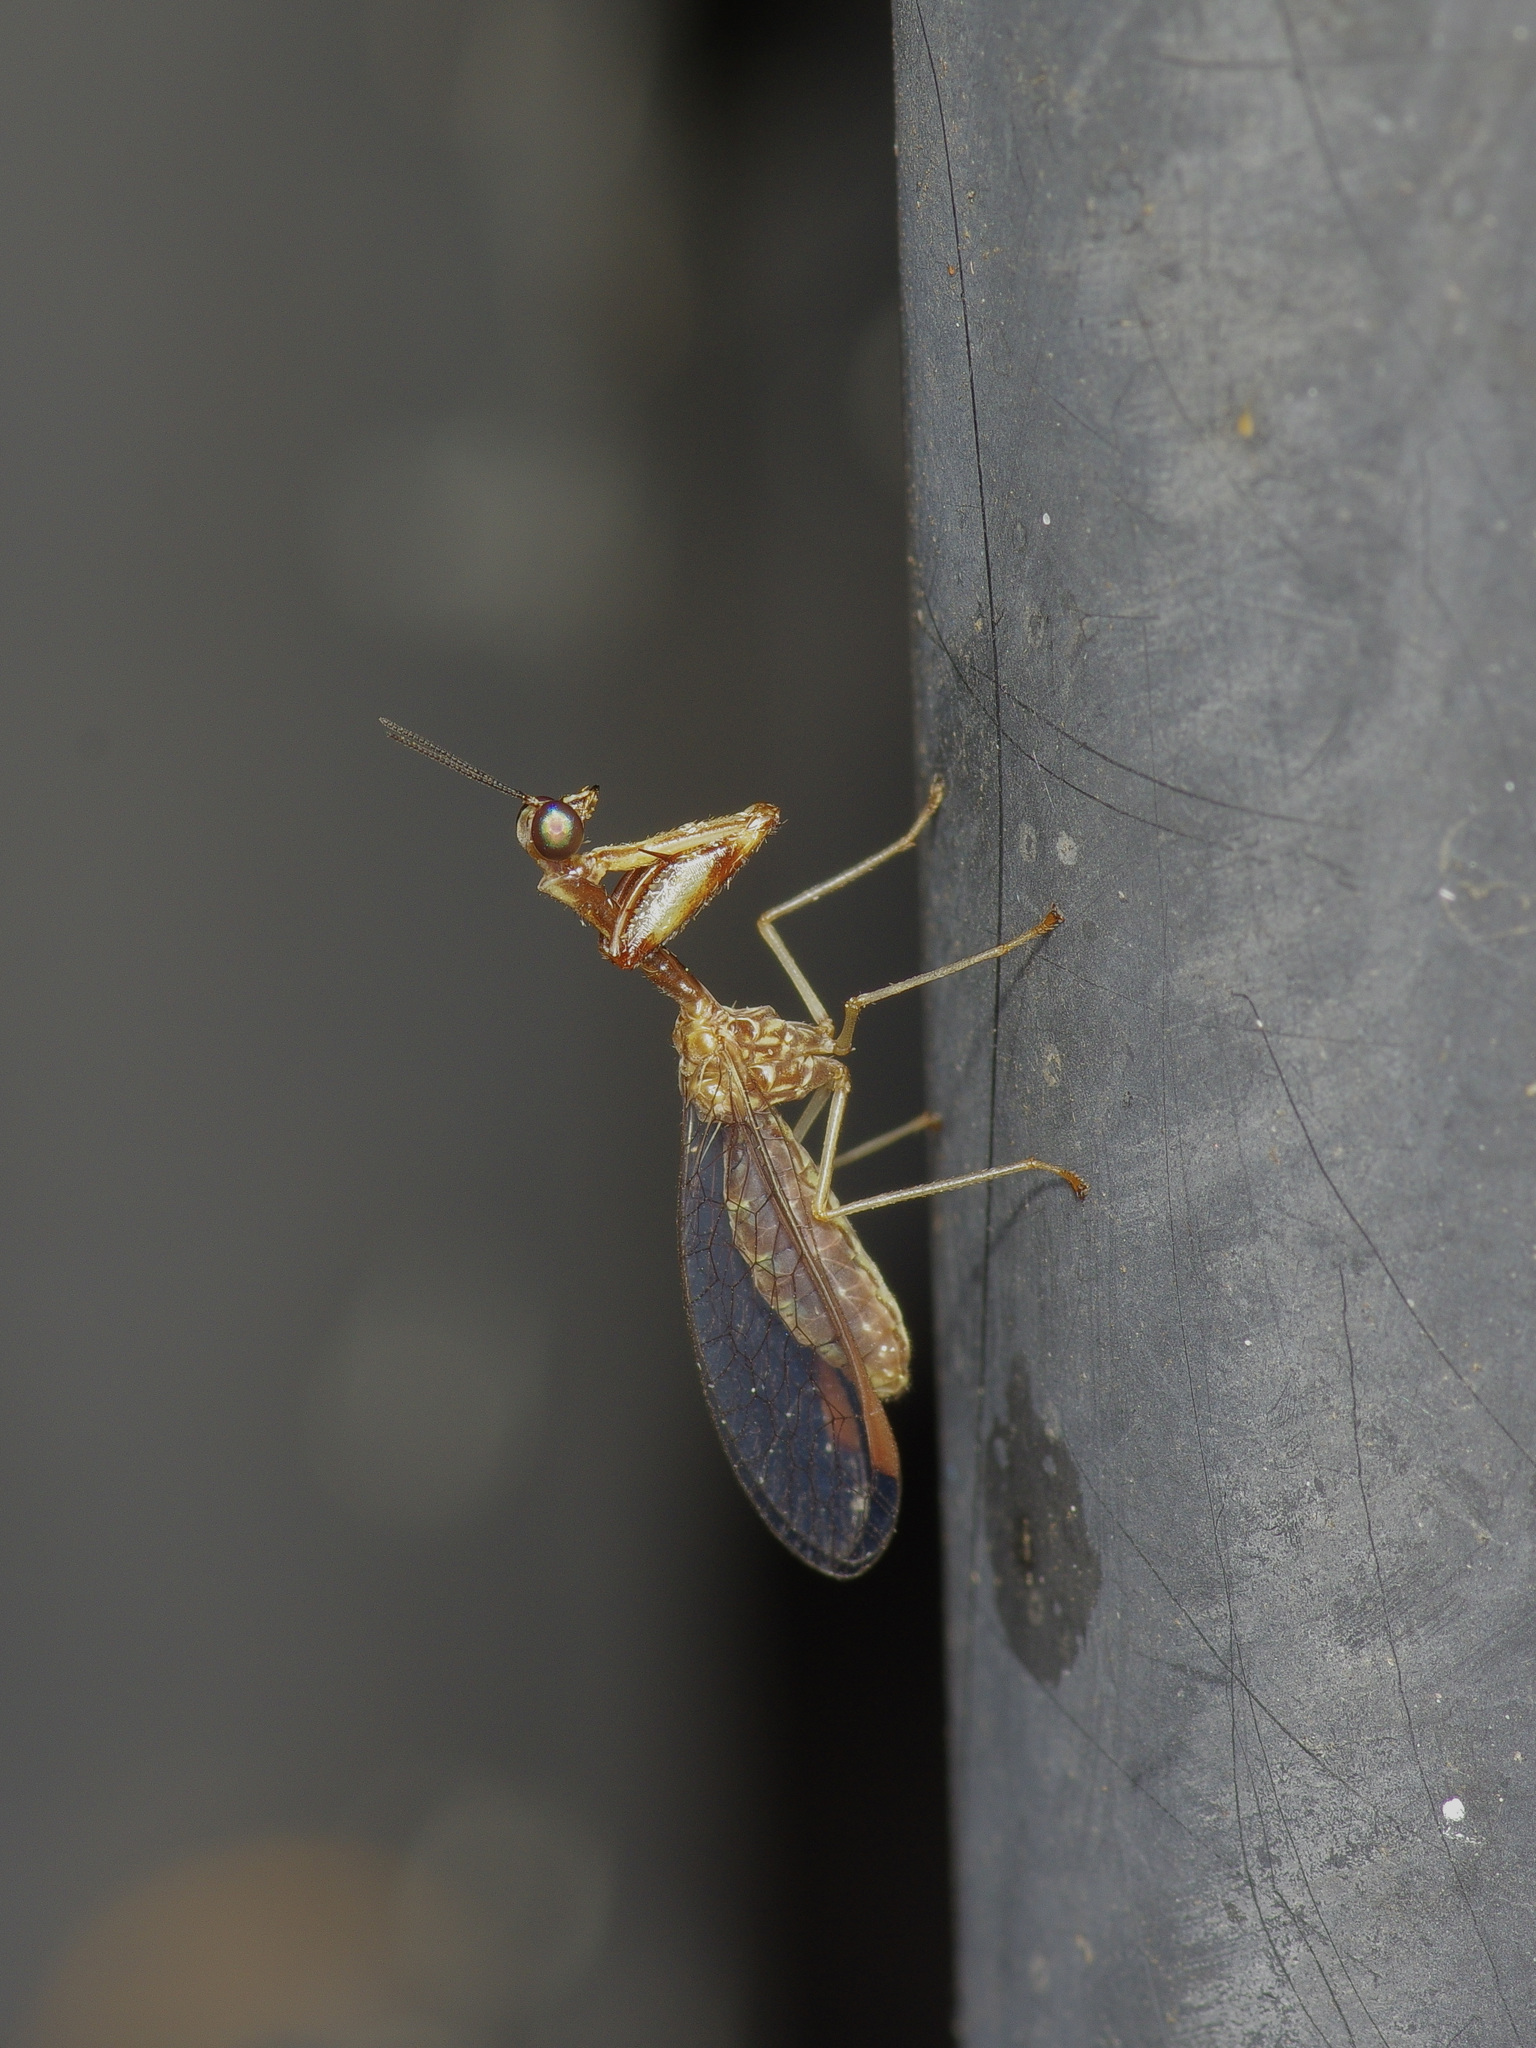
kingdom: Animalia
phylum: Arthropoda
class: Insecta
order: Neuroptera
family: Mantispidae
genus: Leptomantispa
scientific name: Leptomantispa pulchella
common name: Stevens's mantidfly
